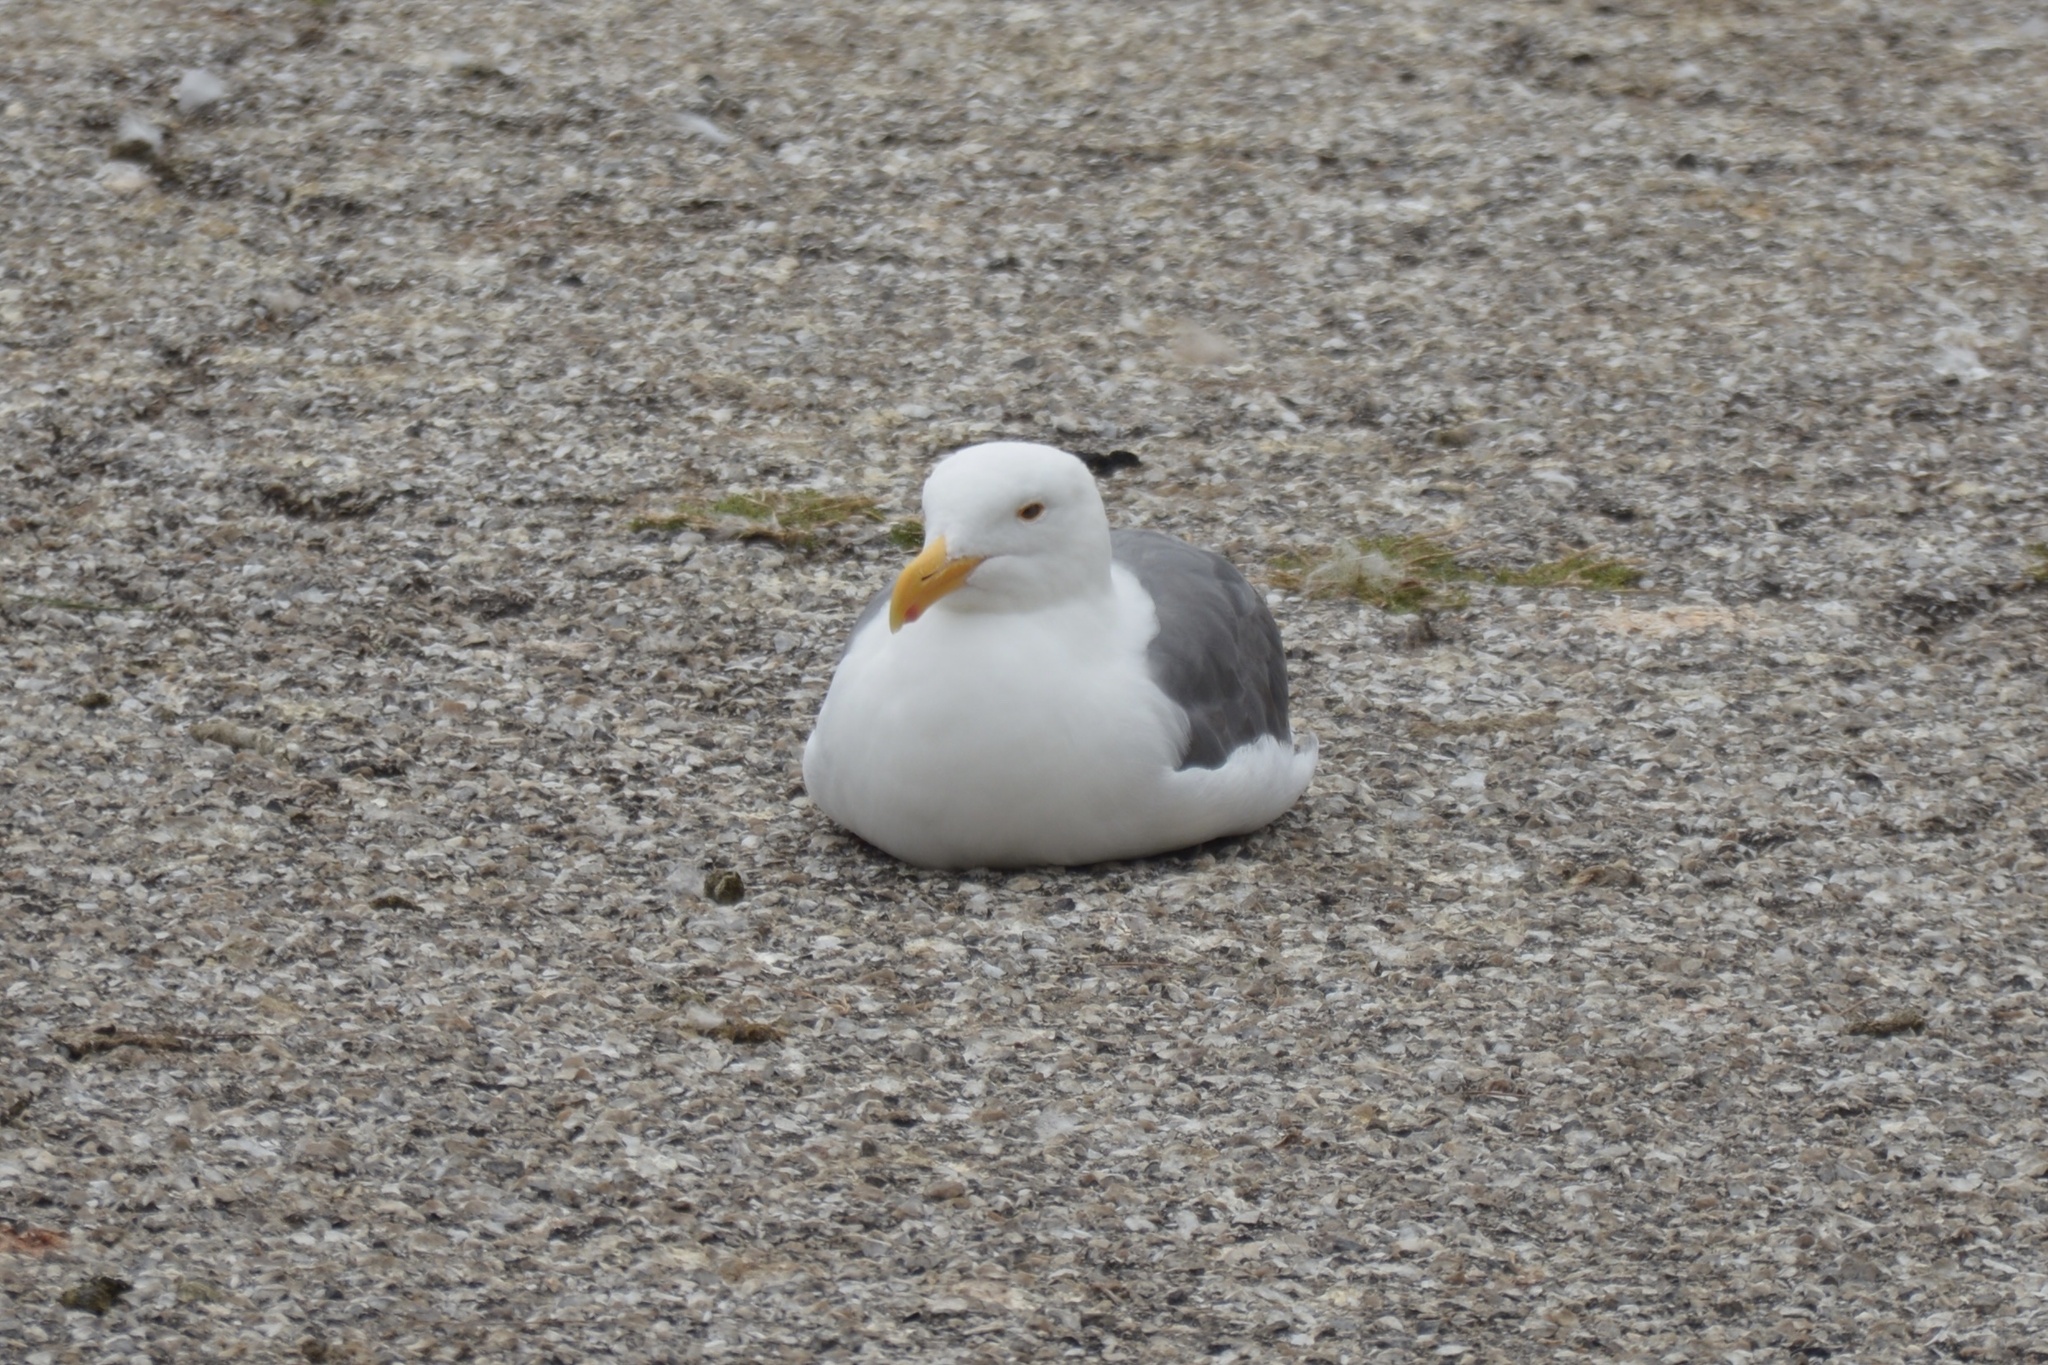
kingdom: Animalia
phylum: Chordata
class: Aves
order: Charadriiformes
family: Laridae
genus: Larus
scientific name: Larus occidentalis
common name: Western gull
